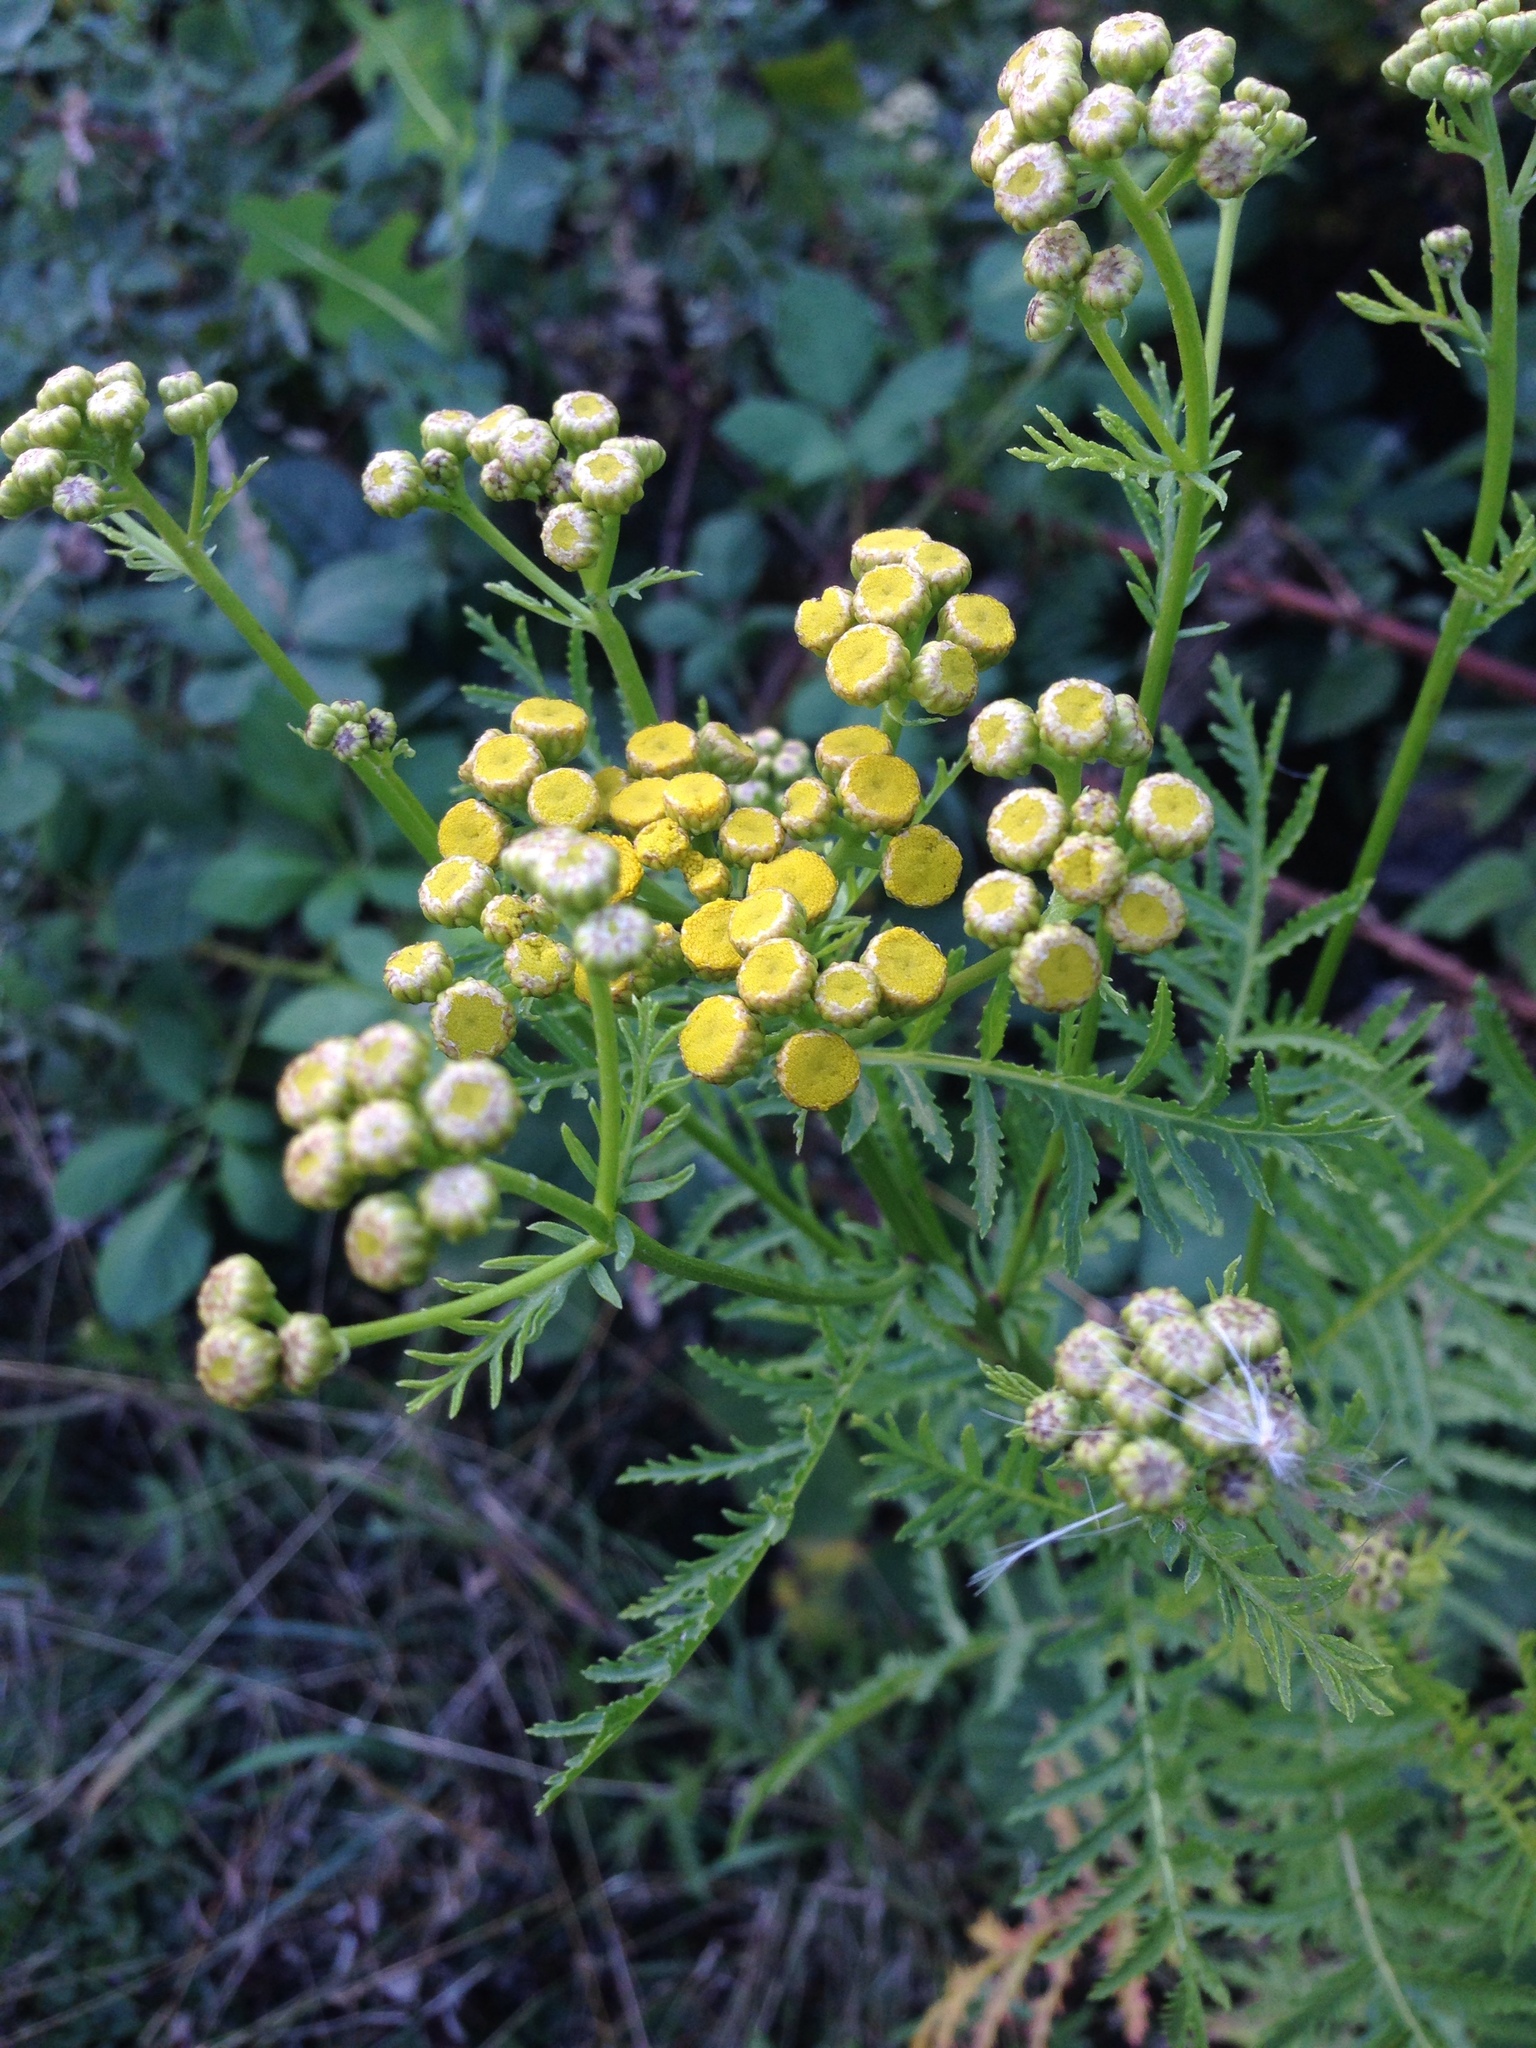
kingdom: Plantae
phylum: Tracheophyta
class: Magnoliopsida
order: Asterales
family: Asteraceae
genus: Tanacetum
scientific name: Tanacetum vulgare
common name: Common tansy
